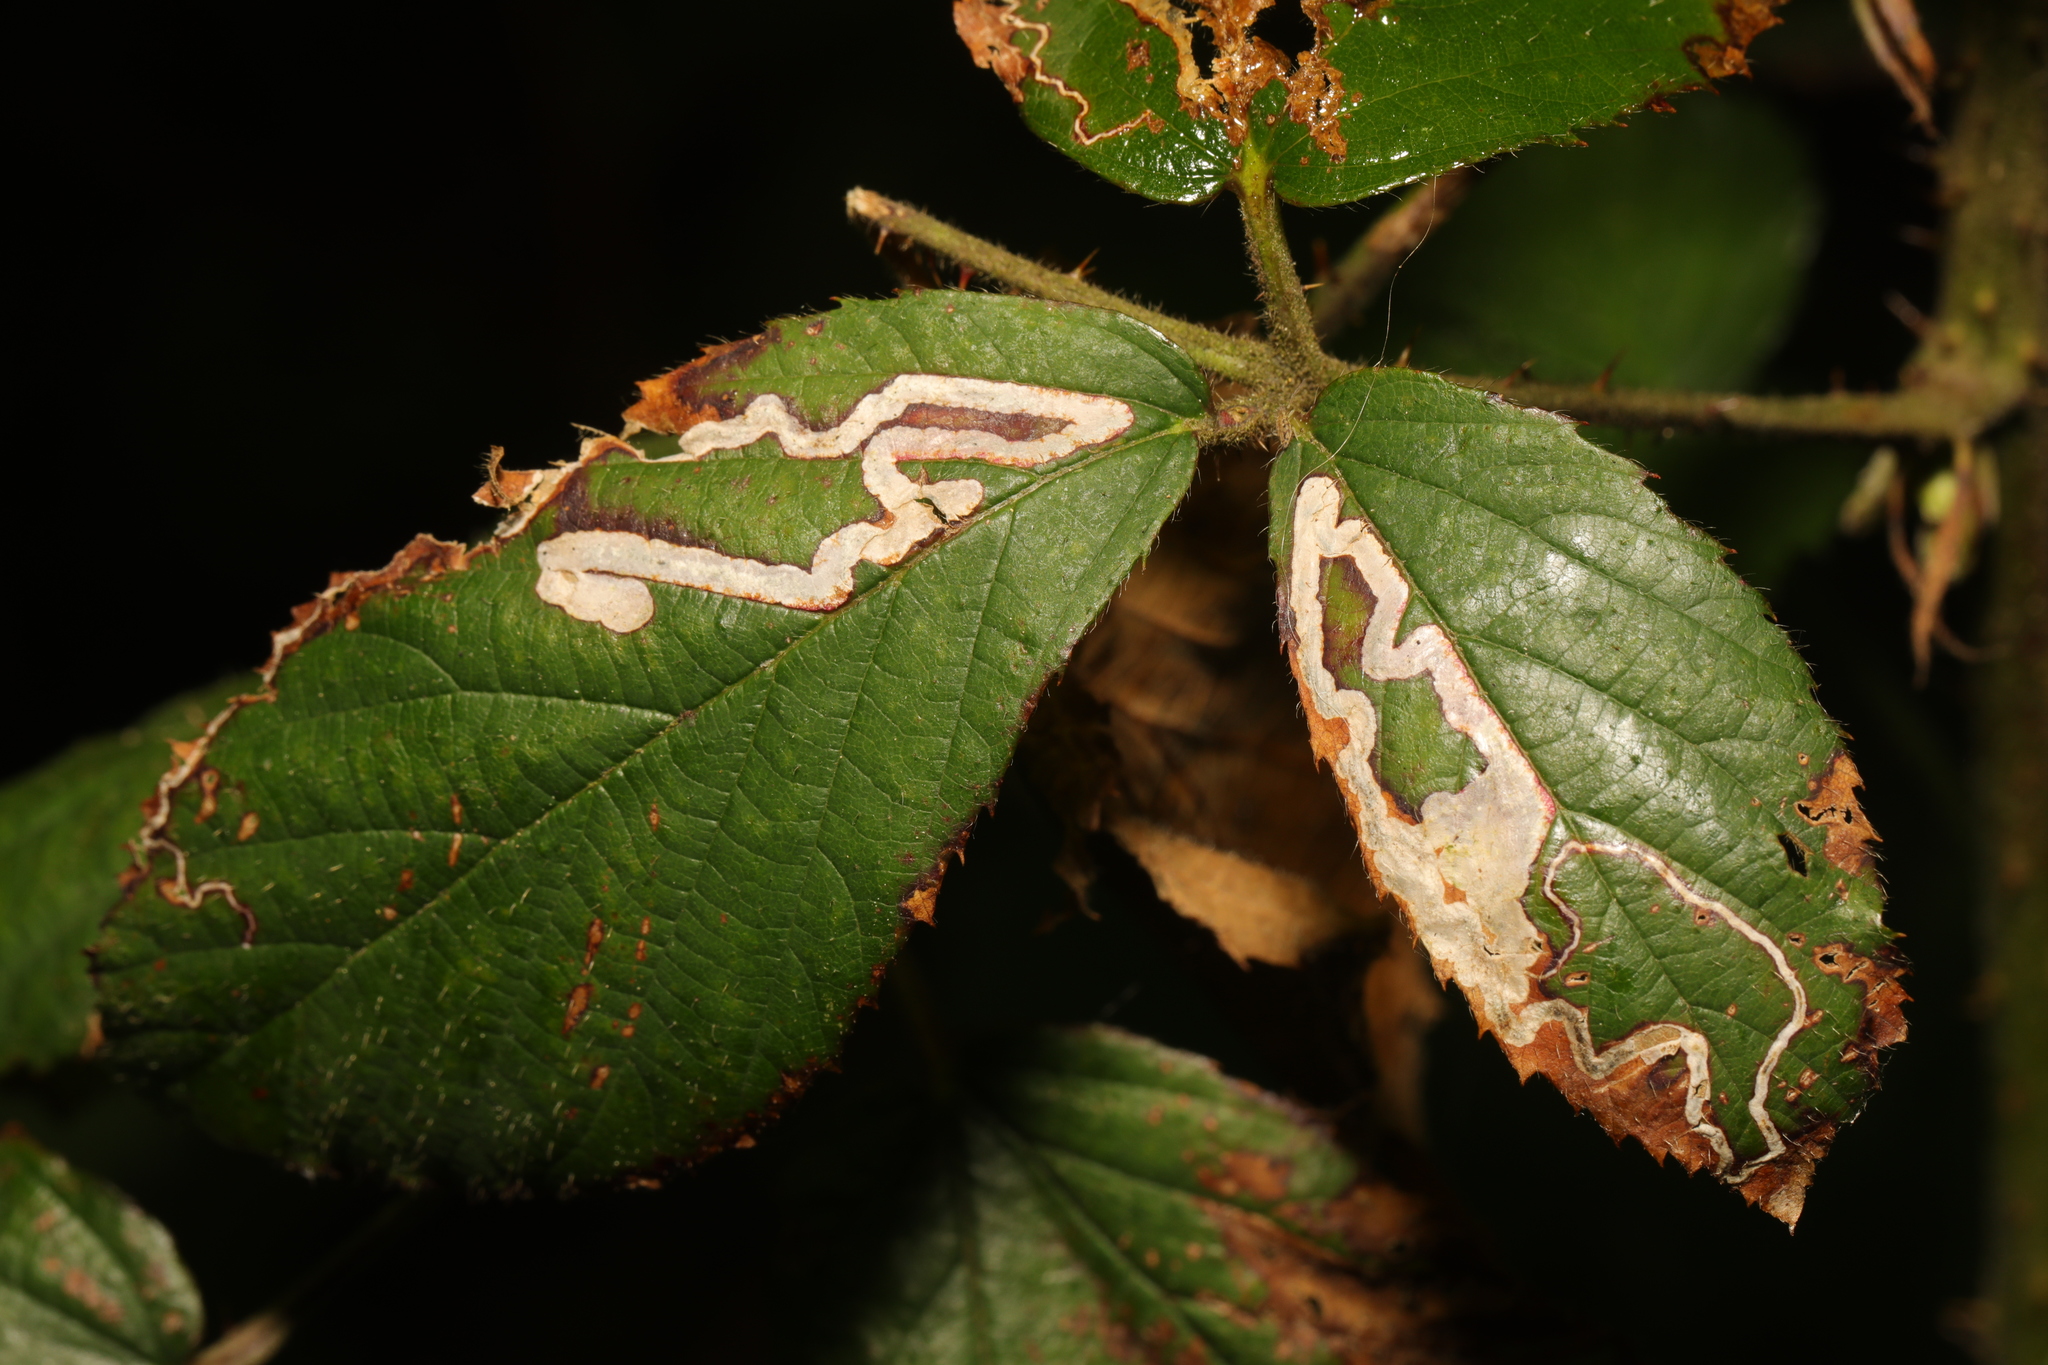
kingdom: Animalia
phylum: Arthropoda
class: Insecta
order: Lepidoptera
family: Nepticulidae
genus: Stigmella
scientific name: Stigmella aurella
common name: Golden pigmy
